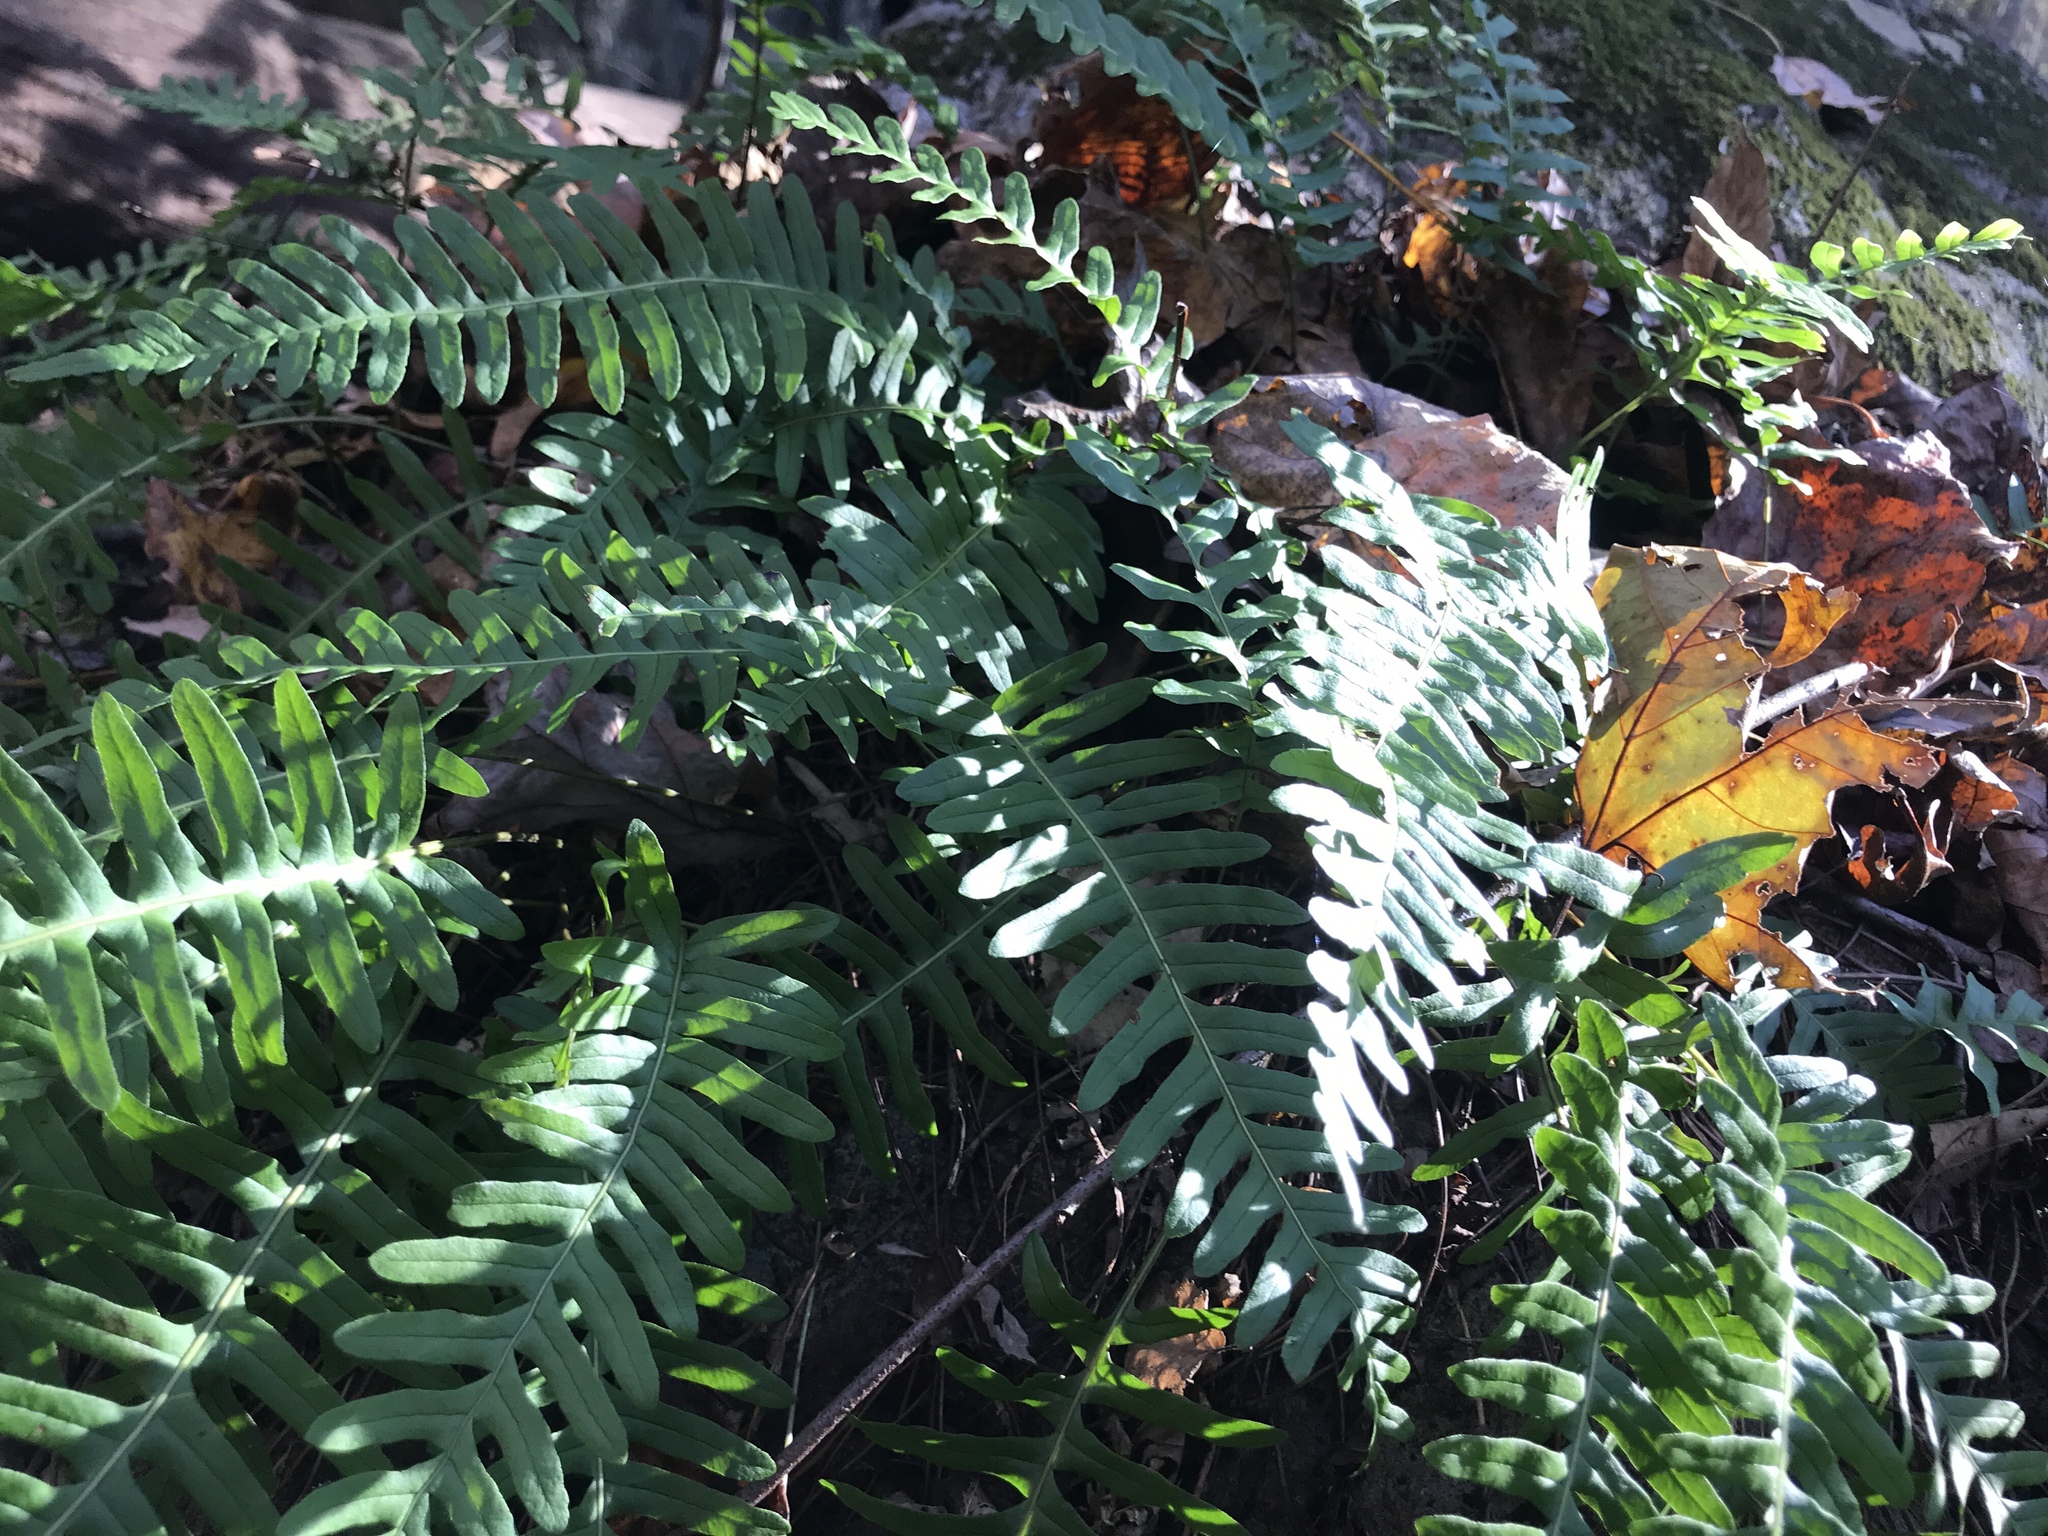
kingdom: Plantae
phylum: Tracheophyta
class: Polypodiopsida
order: Polypodiales
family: Polypodiaceae
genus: Polypodium
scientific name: Polypodium virginianum
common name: American wall fern
